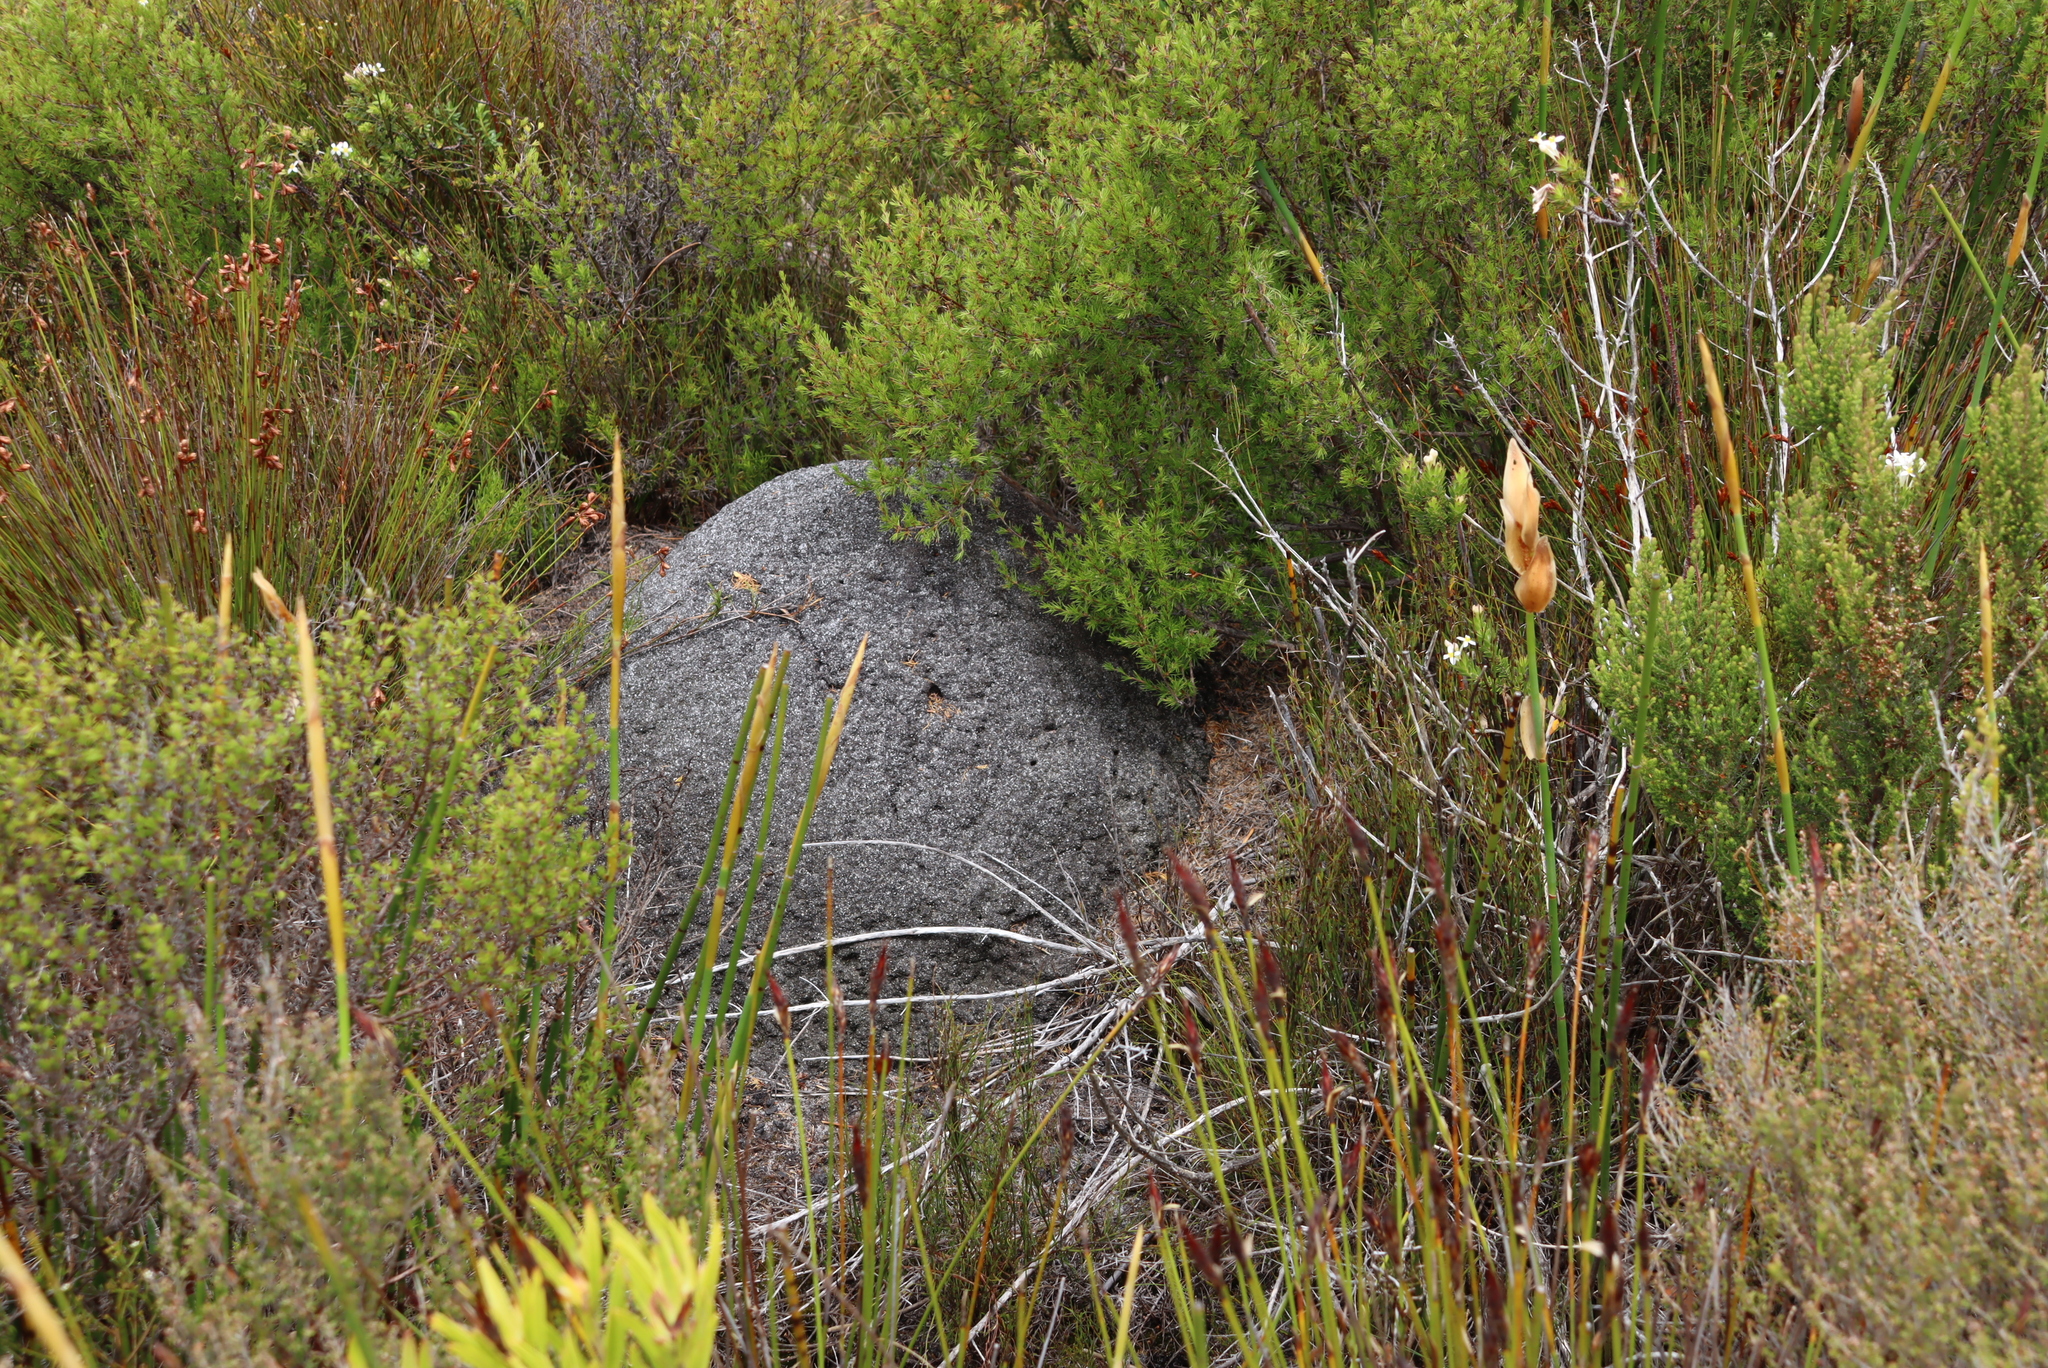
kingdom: Animalia
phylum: Arthropoda
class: Insecta
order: Blattodea
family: Termitidae
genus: Amitermes
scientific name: Amitermes hastatus
